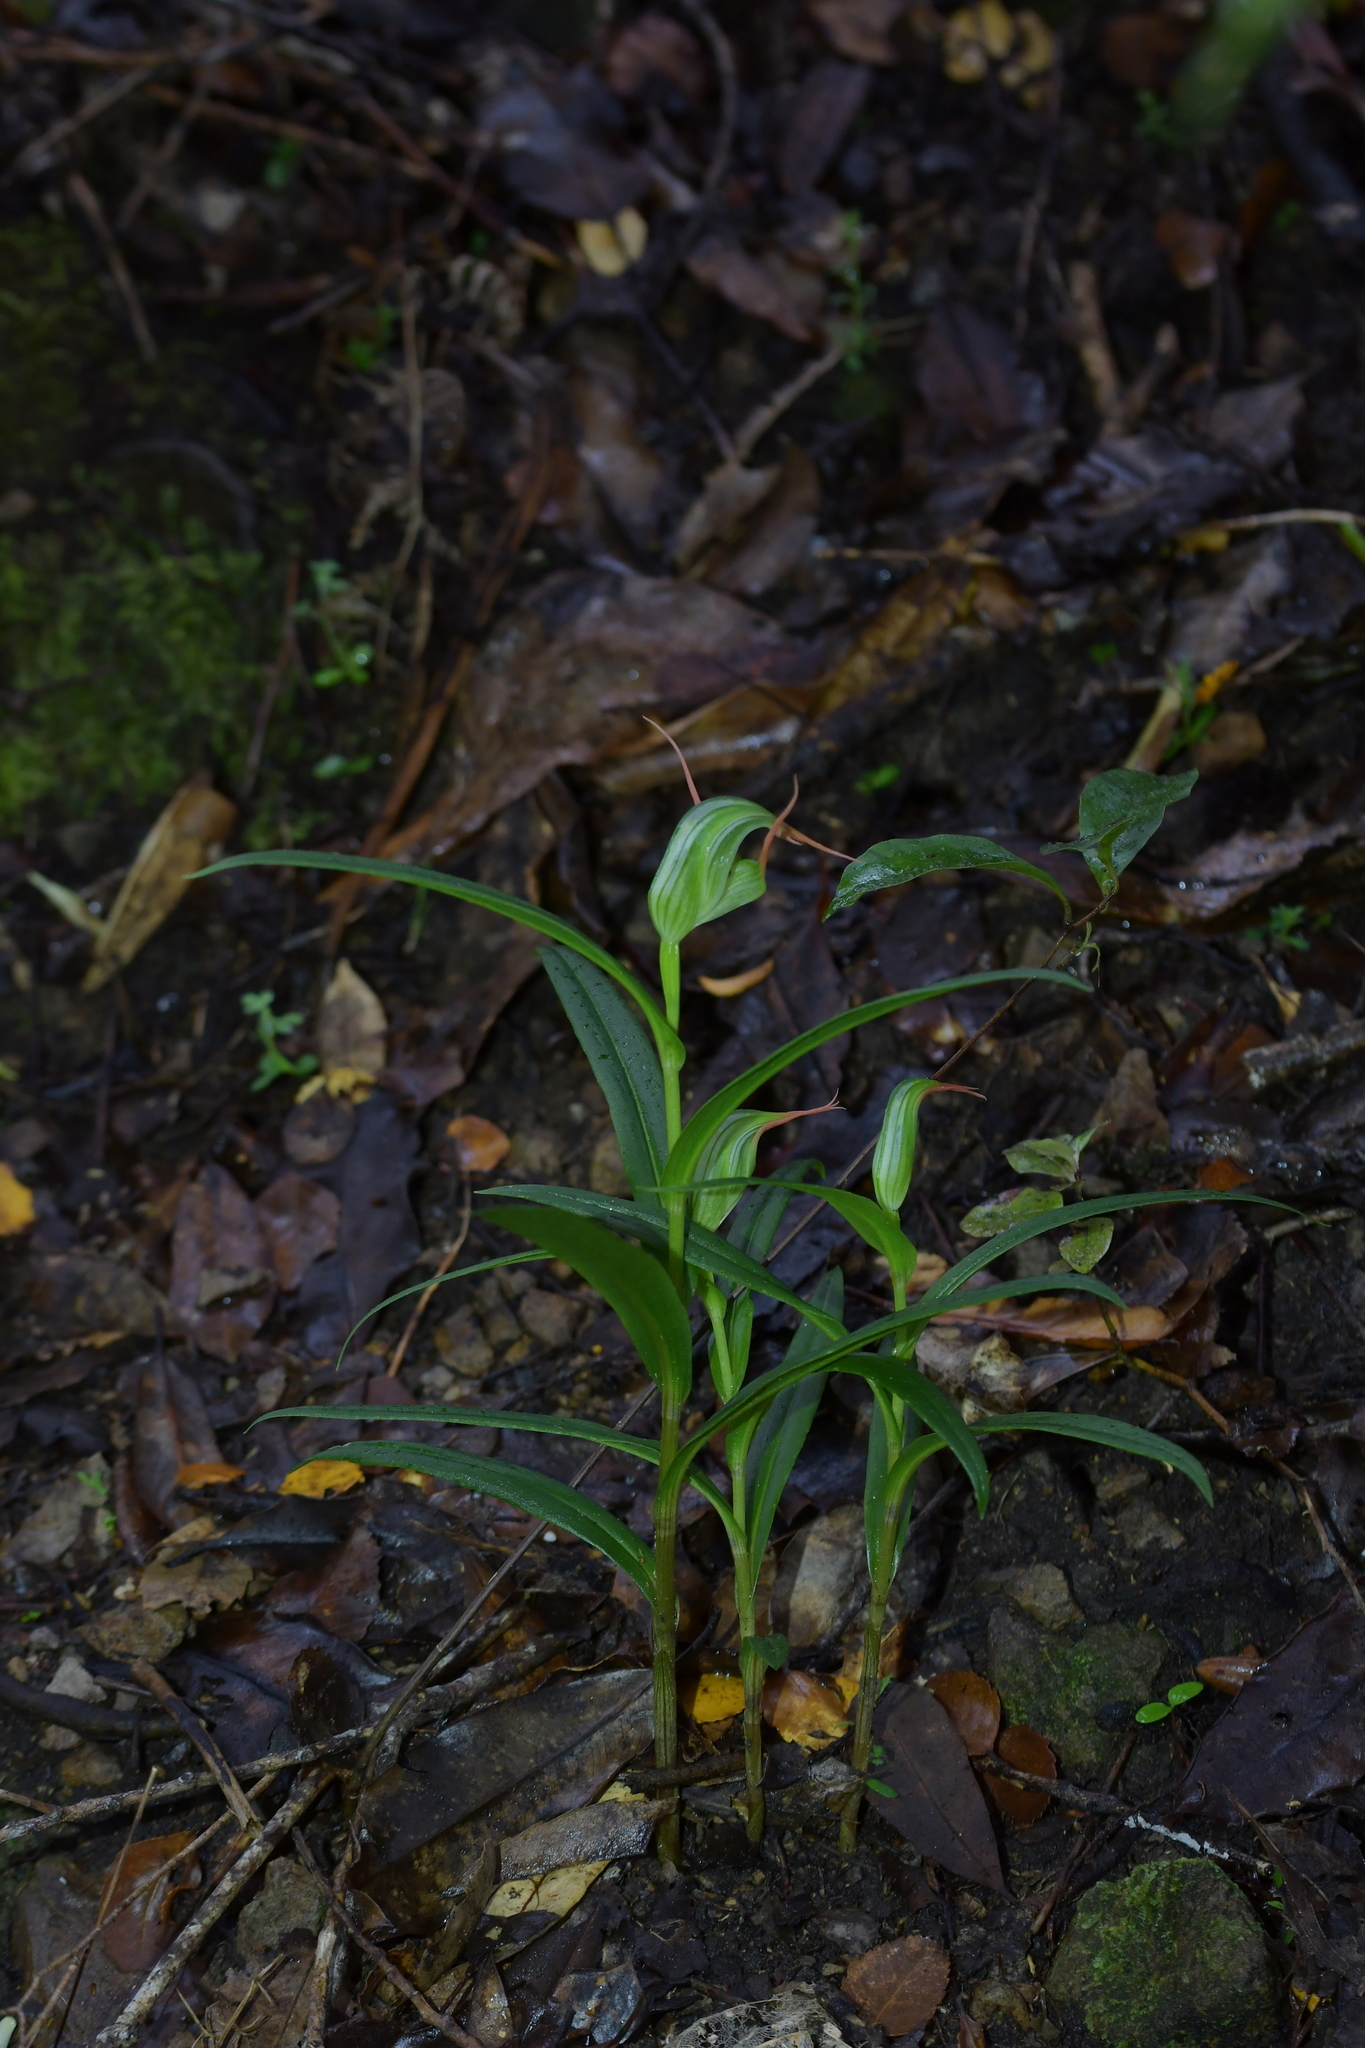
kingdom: Plantae
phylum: Tracheophyta
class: Liliopsida
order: Asparagales
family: Orchidaceae
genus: Pterostylis
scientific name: Pterostylis banksii
